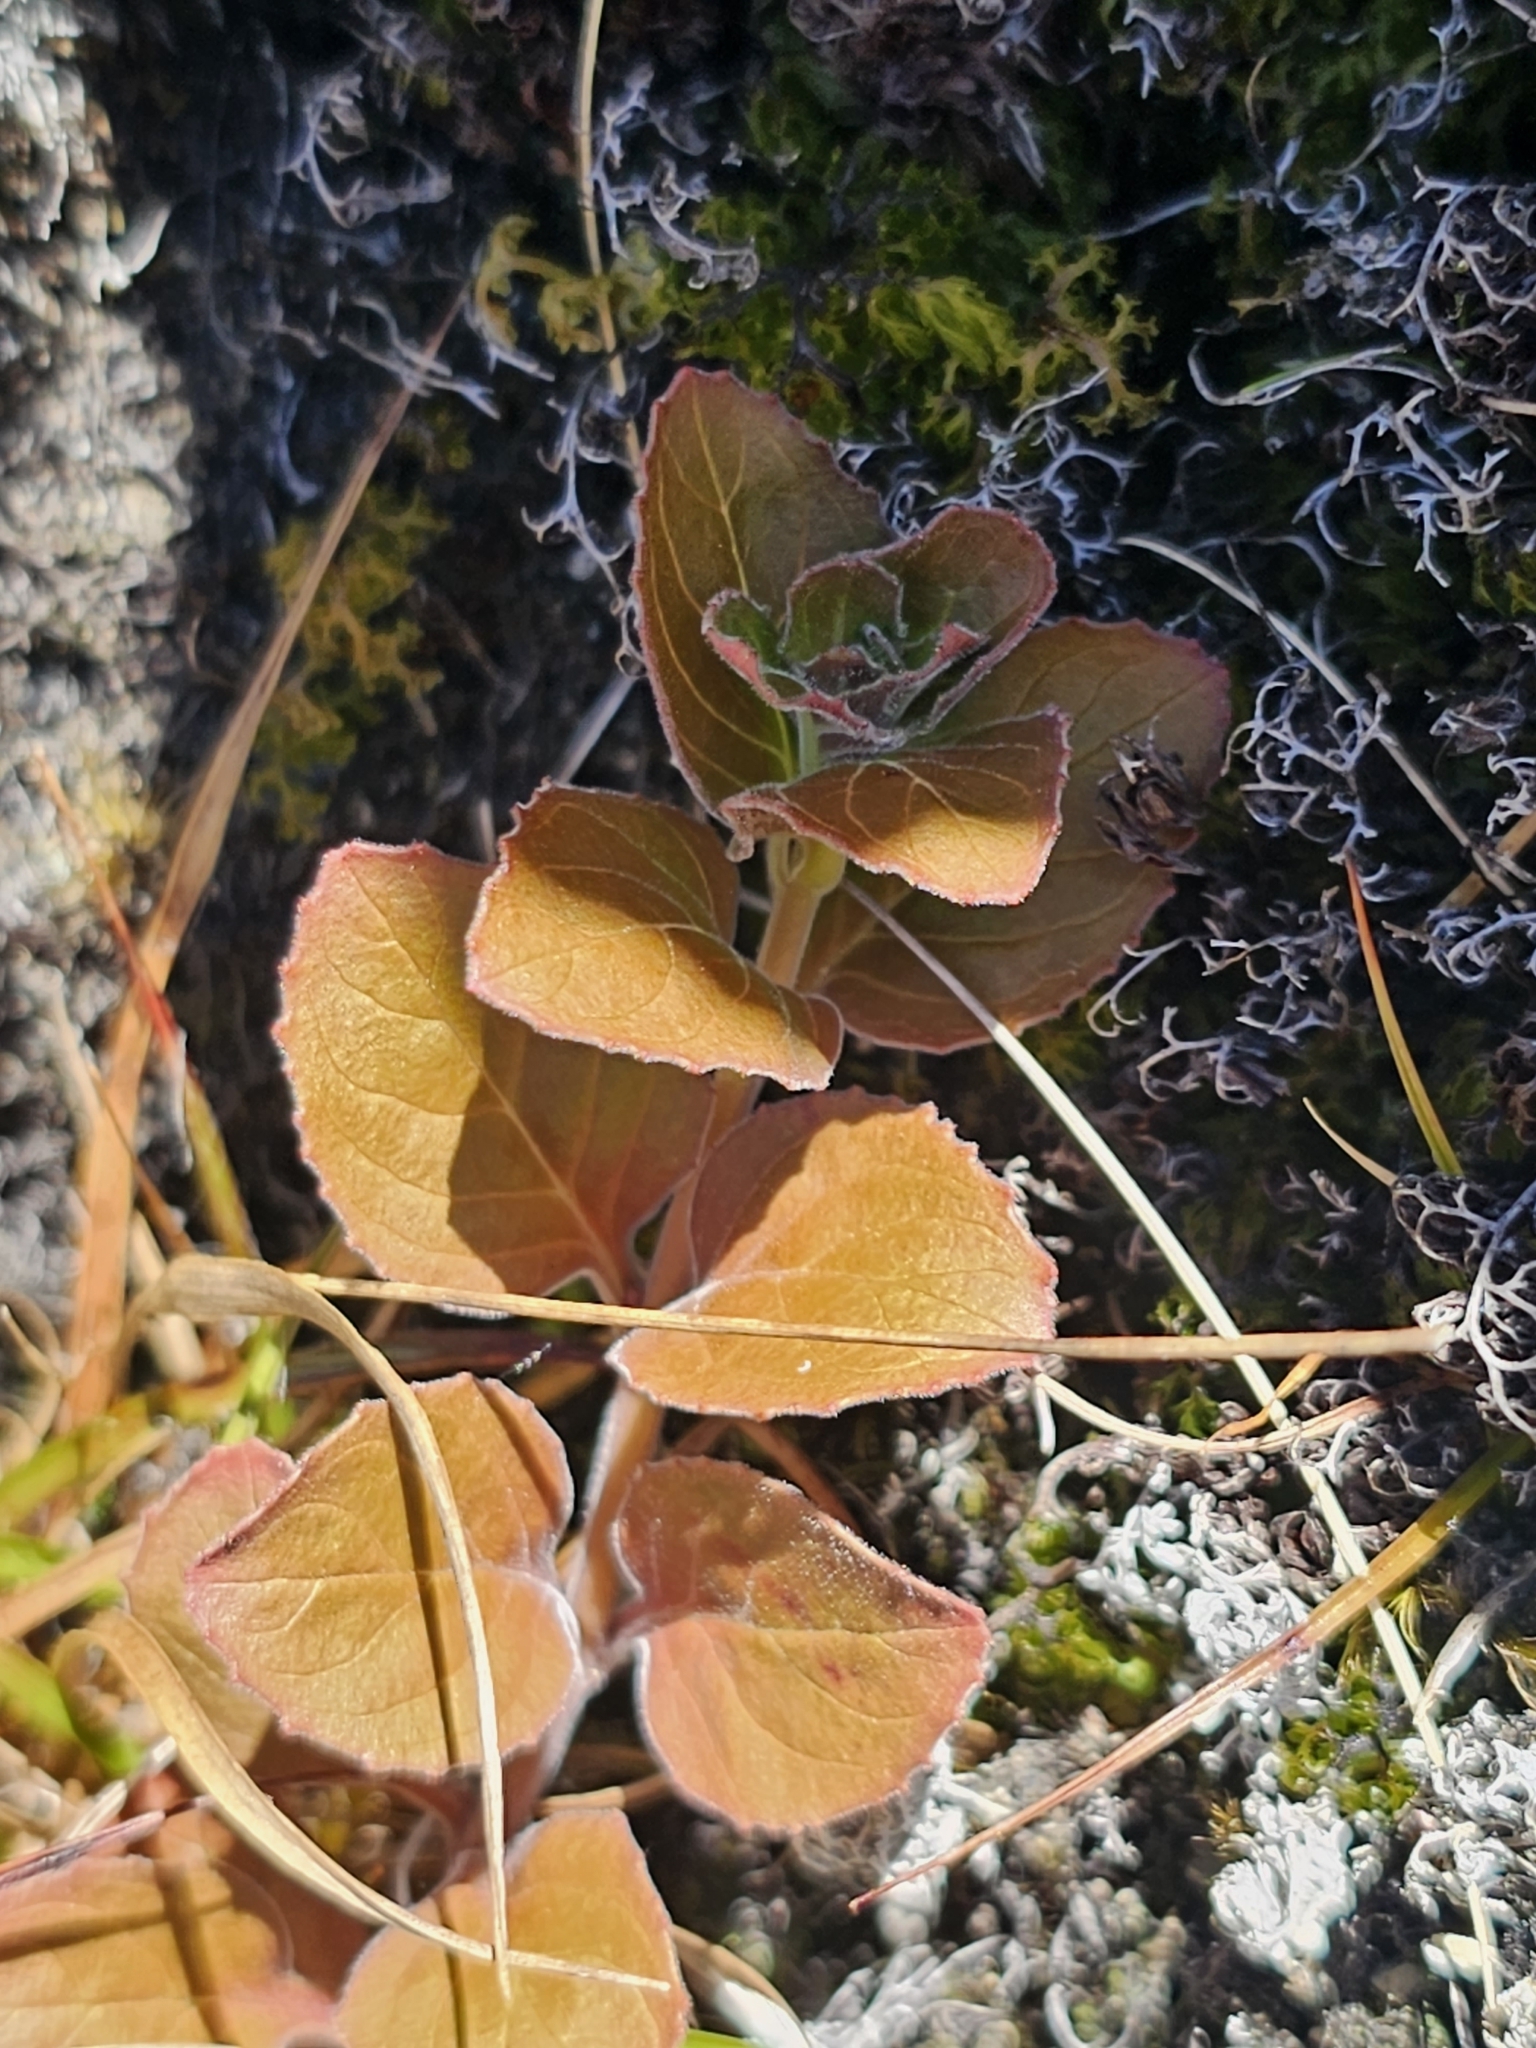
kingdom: Plantae
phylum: Tracheophyta
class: Magnoliopsida
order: Myrtales
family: Onagraceae
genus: Epilobium
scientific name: Epilobium pubens
